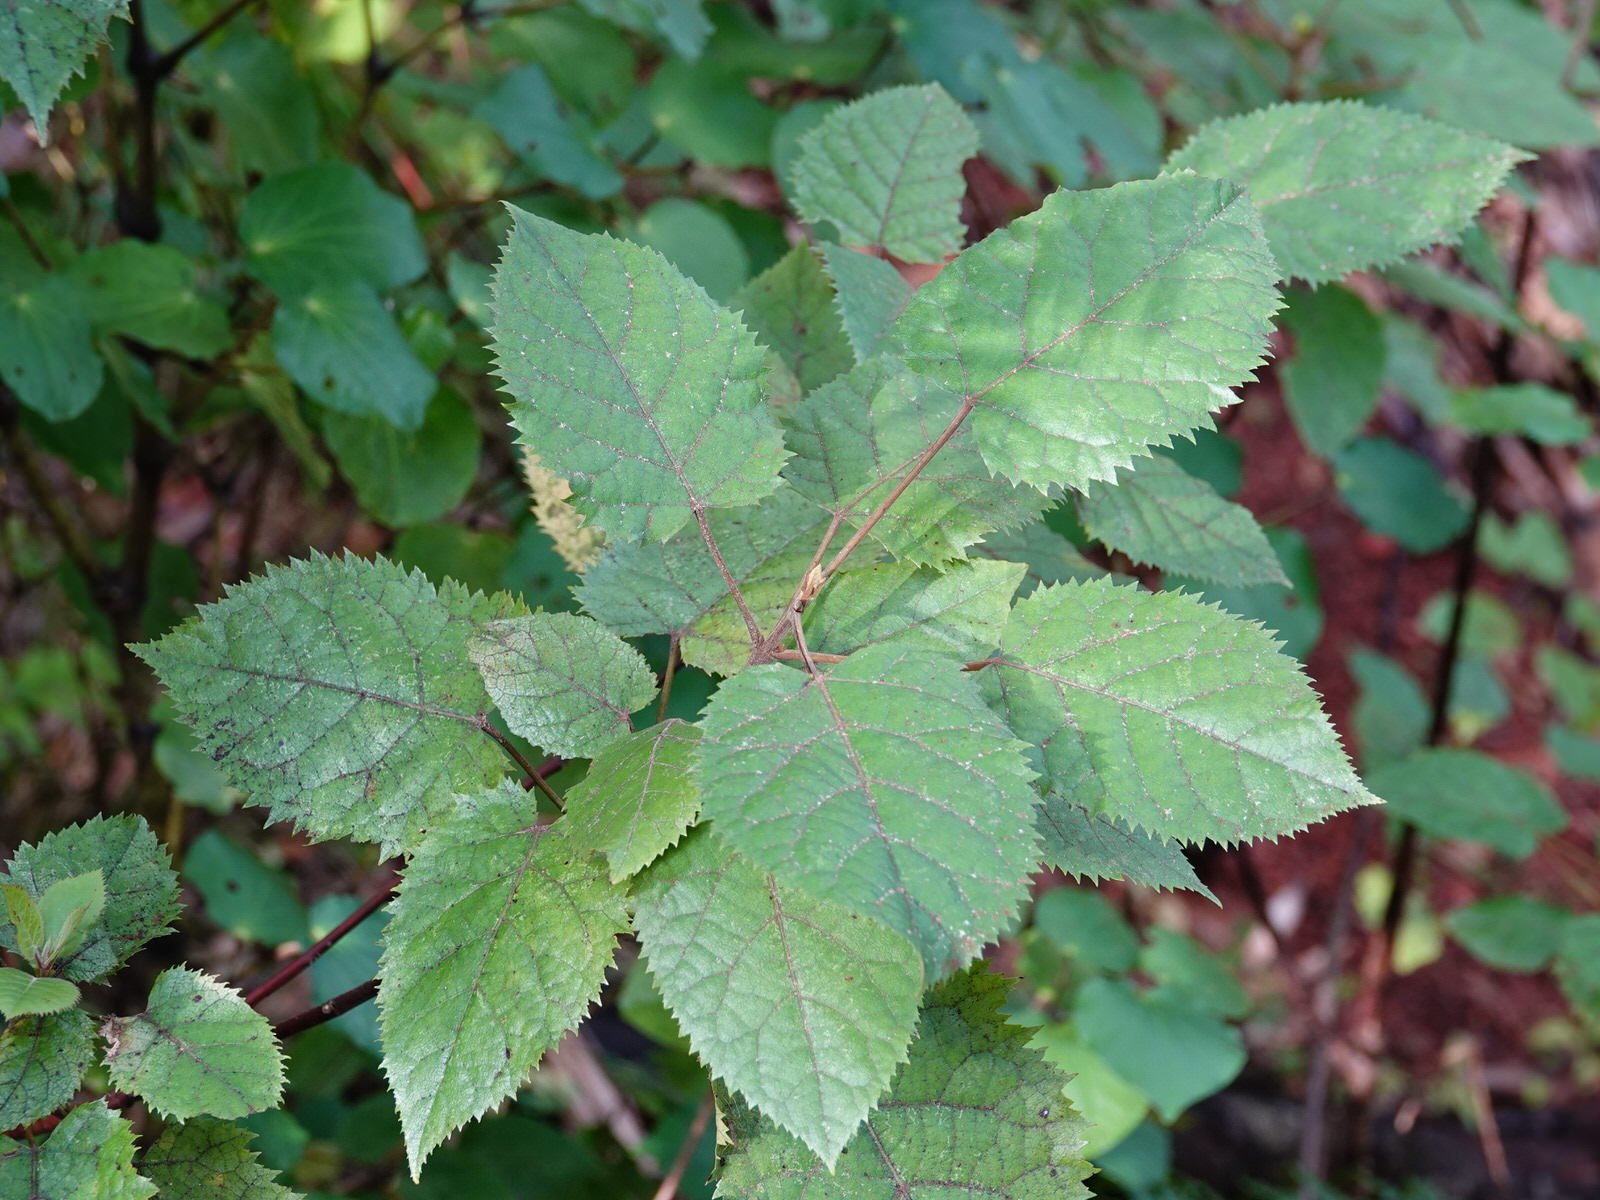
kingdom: Plantae
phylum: Tracheophyta
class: Magnoliopsida
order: Oxalidales
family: Elaeocarpaceae
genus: Aristotelia
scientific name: Aristotelia serrata
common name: New zealand wineberry
